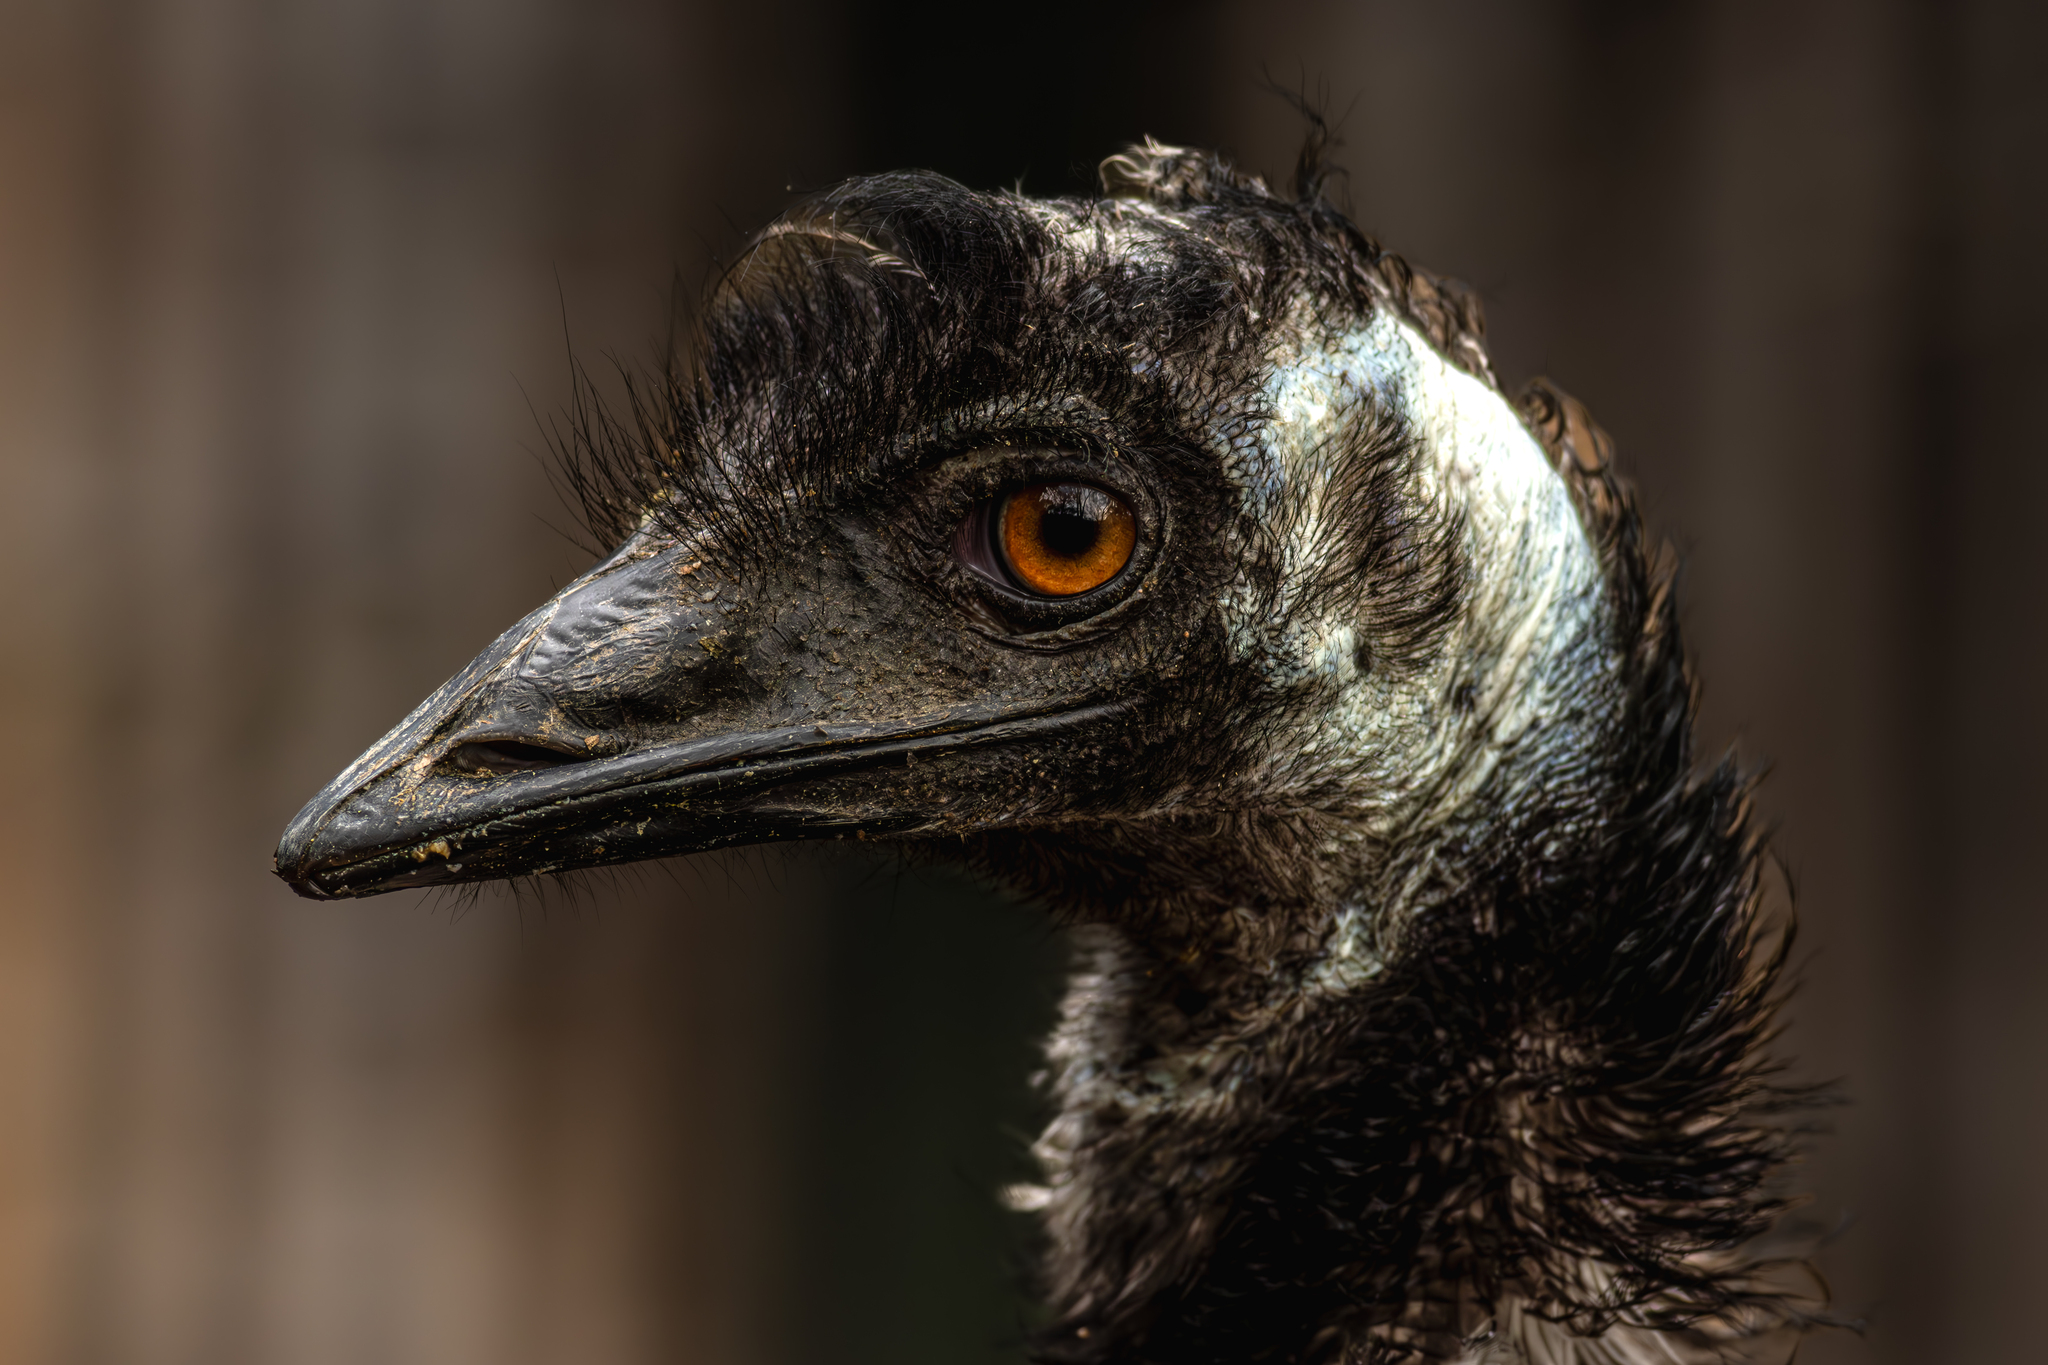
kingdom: Animalia
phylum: Chordata
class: Aves
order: Casuariiformes
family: Dromaiidae
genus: Dromaius
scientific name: Dromaius novaehollandiae
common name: Emu
